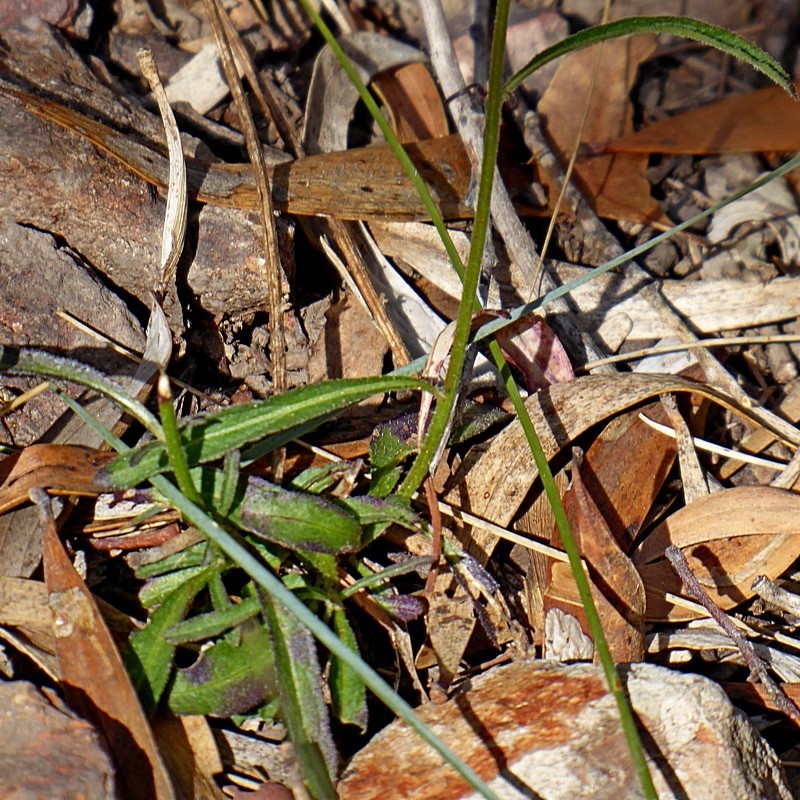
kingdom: Plantae
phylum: Tracheophyta
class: Magnoliopsida
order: Asterales
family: Asteraceae
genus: Cyanthillium
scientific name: Cyanthillium cinereum
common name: Little ironweed
